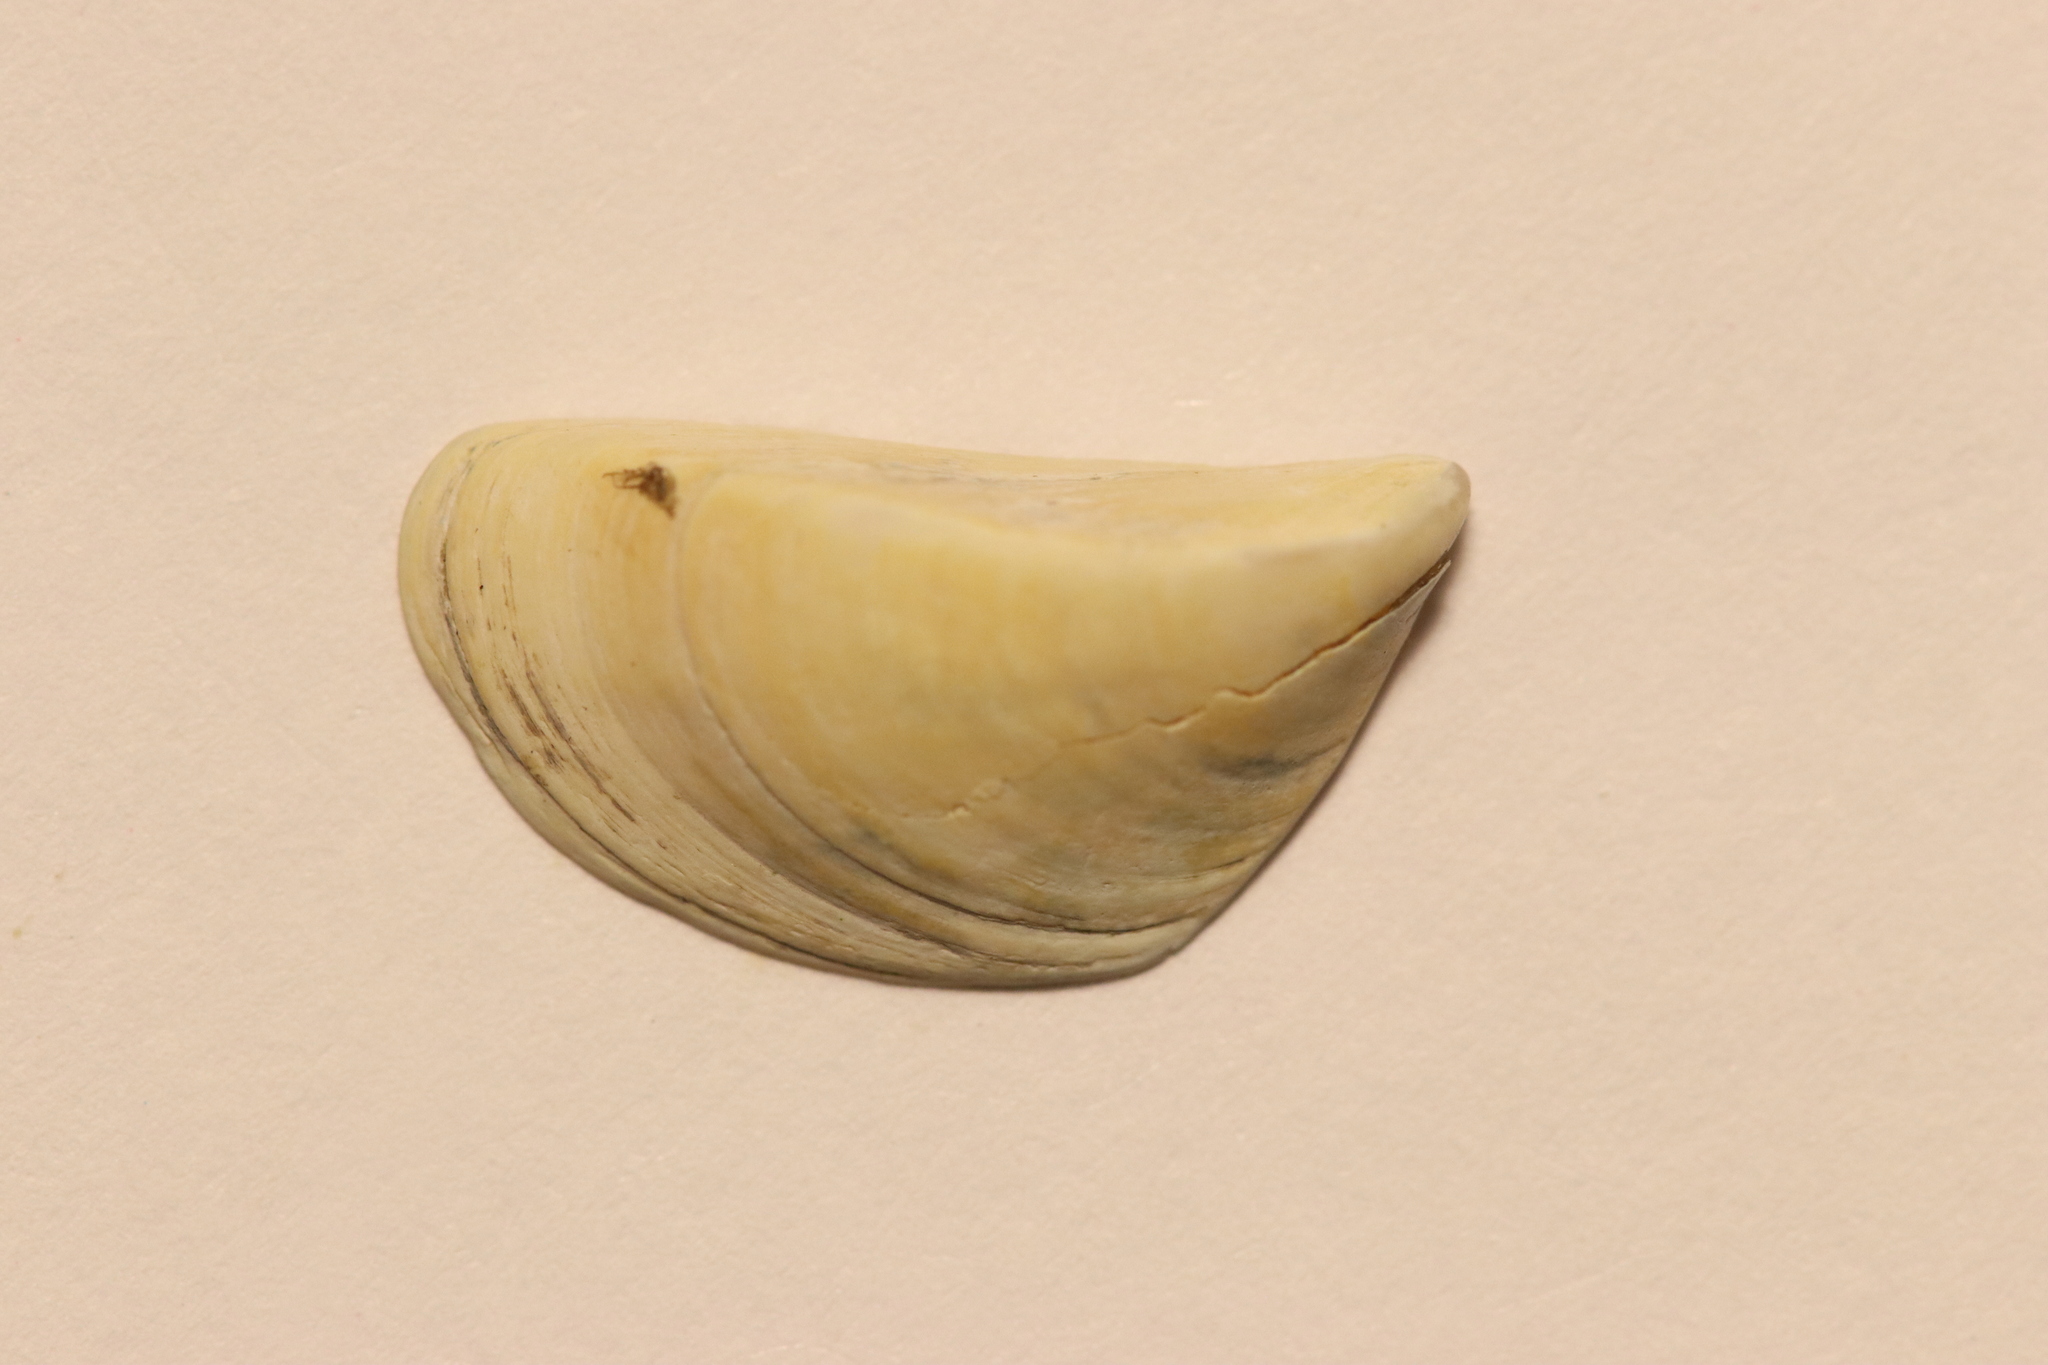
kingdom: Animalia
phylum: Mollusca
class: Bivalvia
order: Myida
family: Dreissenidae
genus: Dreissena
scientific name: Dreissena polymorpha
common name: Zebra mussel
